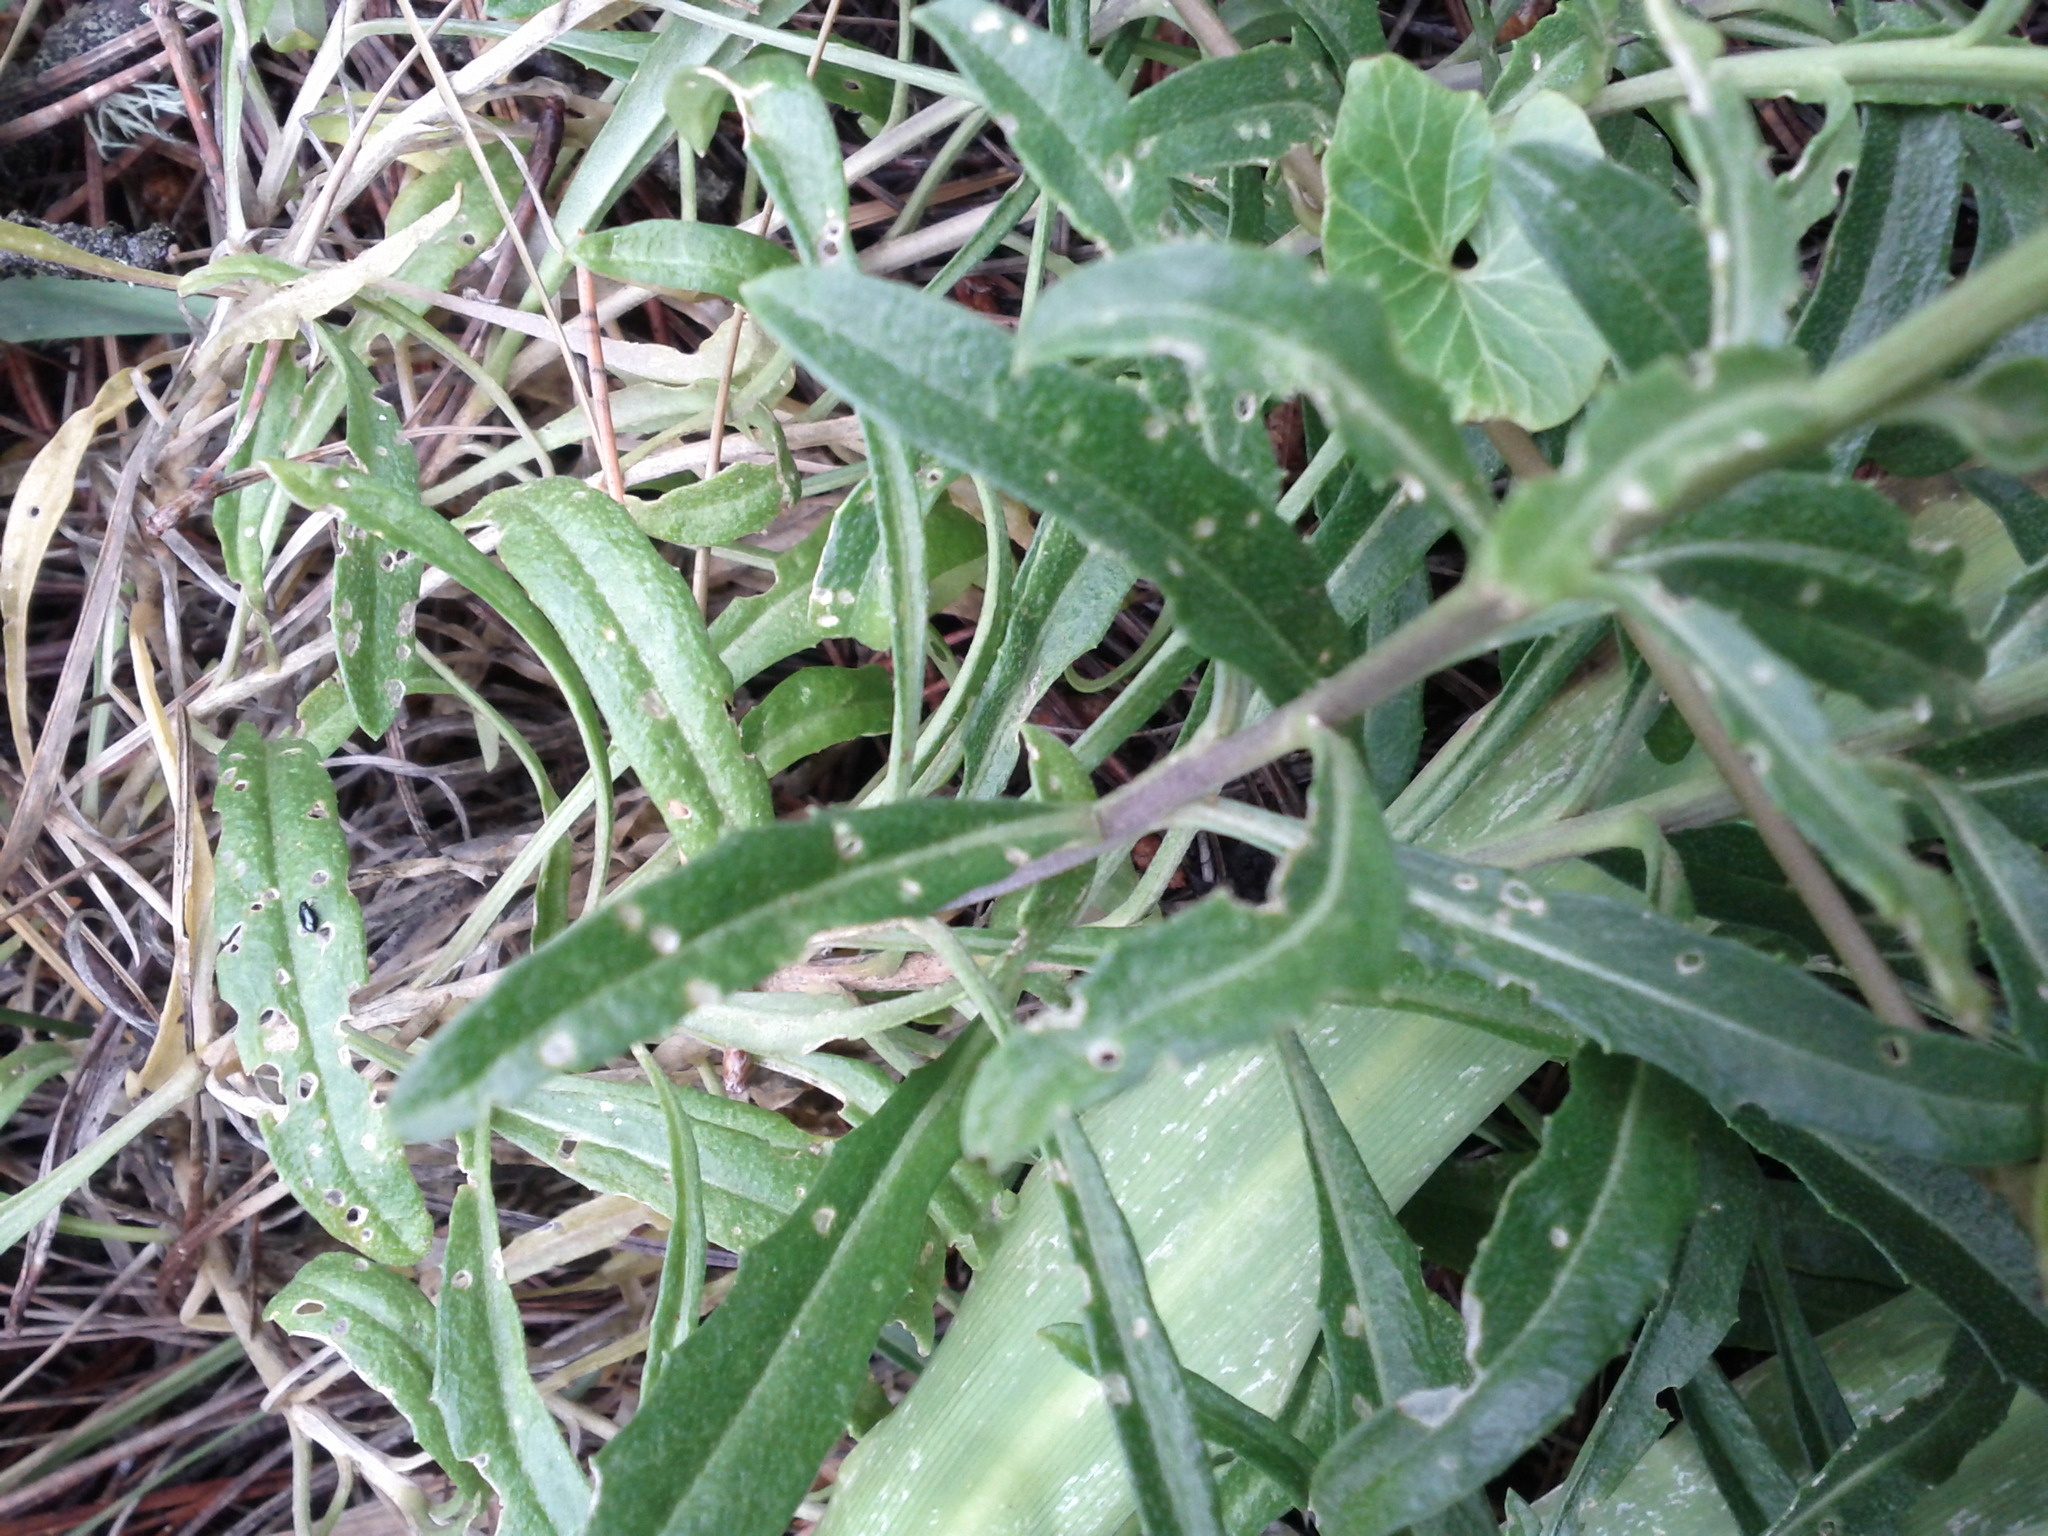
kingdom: Plantae
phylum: Tracheophyta
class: Magnoliopsida
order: Brassicales
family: Brassicaceae
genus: Erysimum
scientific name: Erysimum franciscanum
